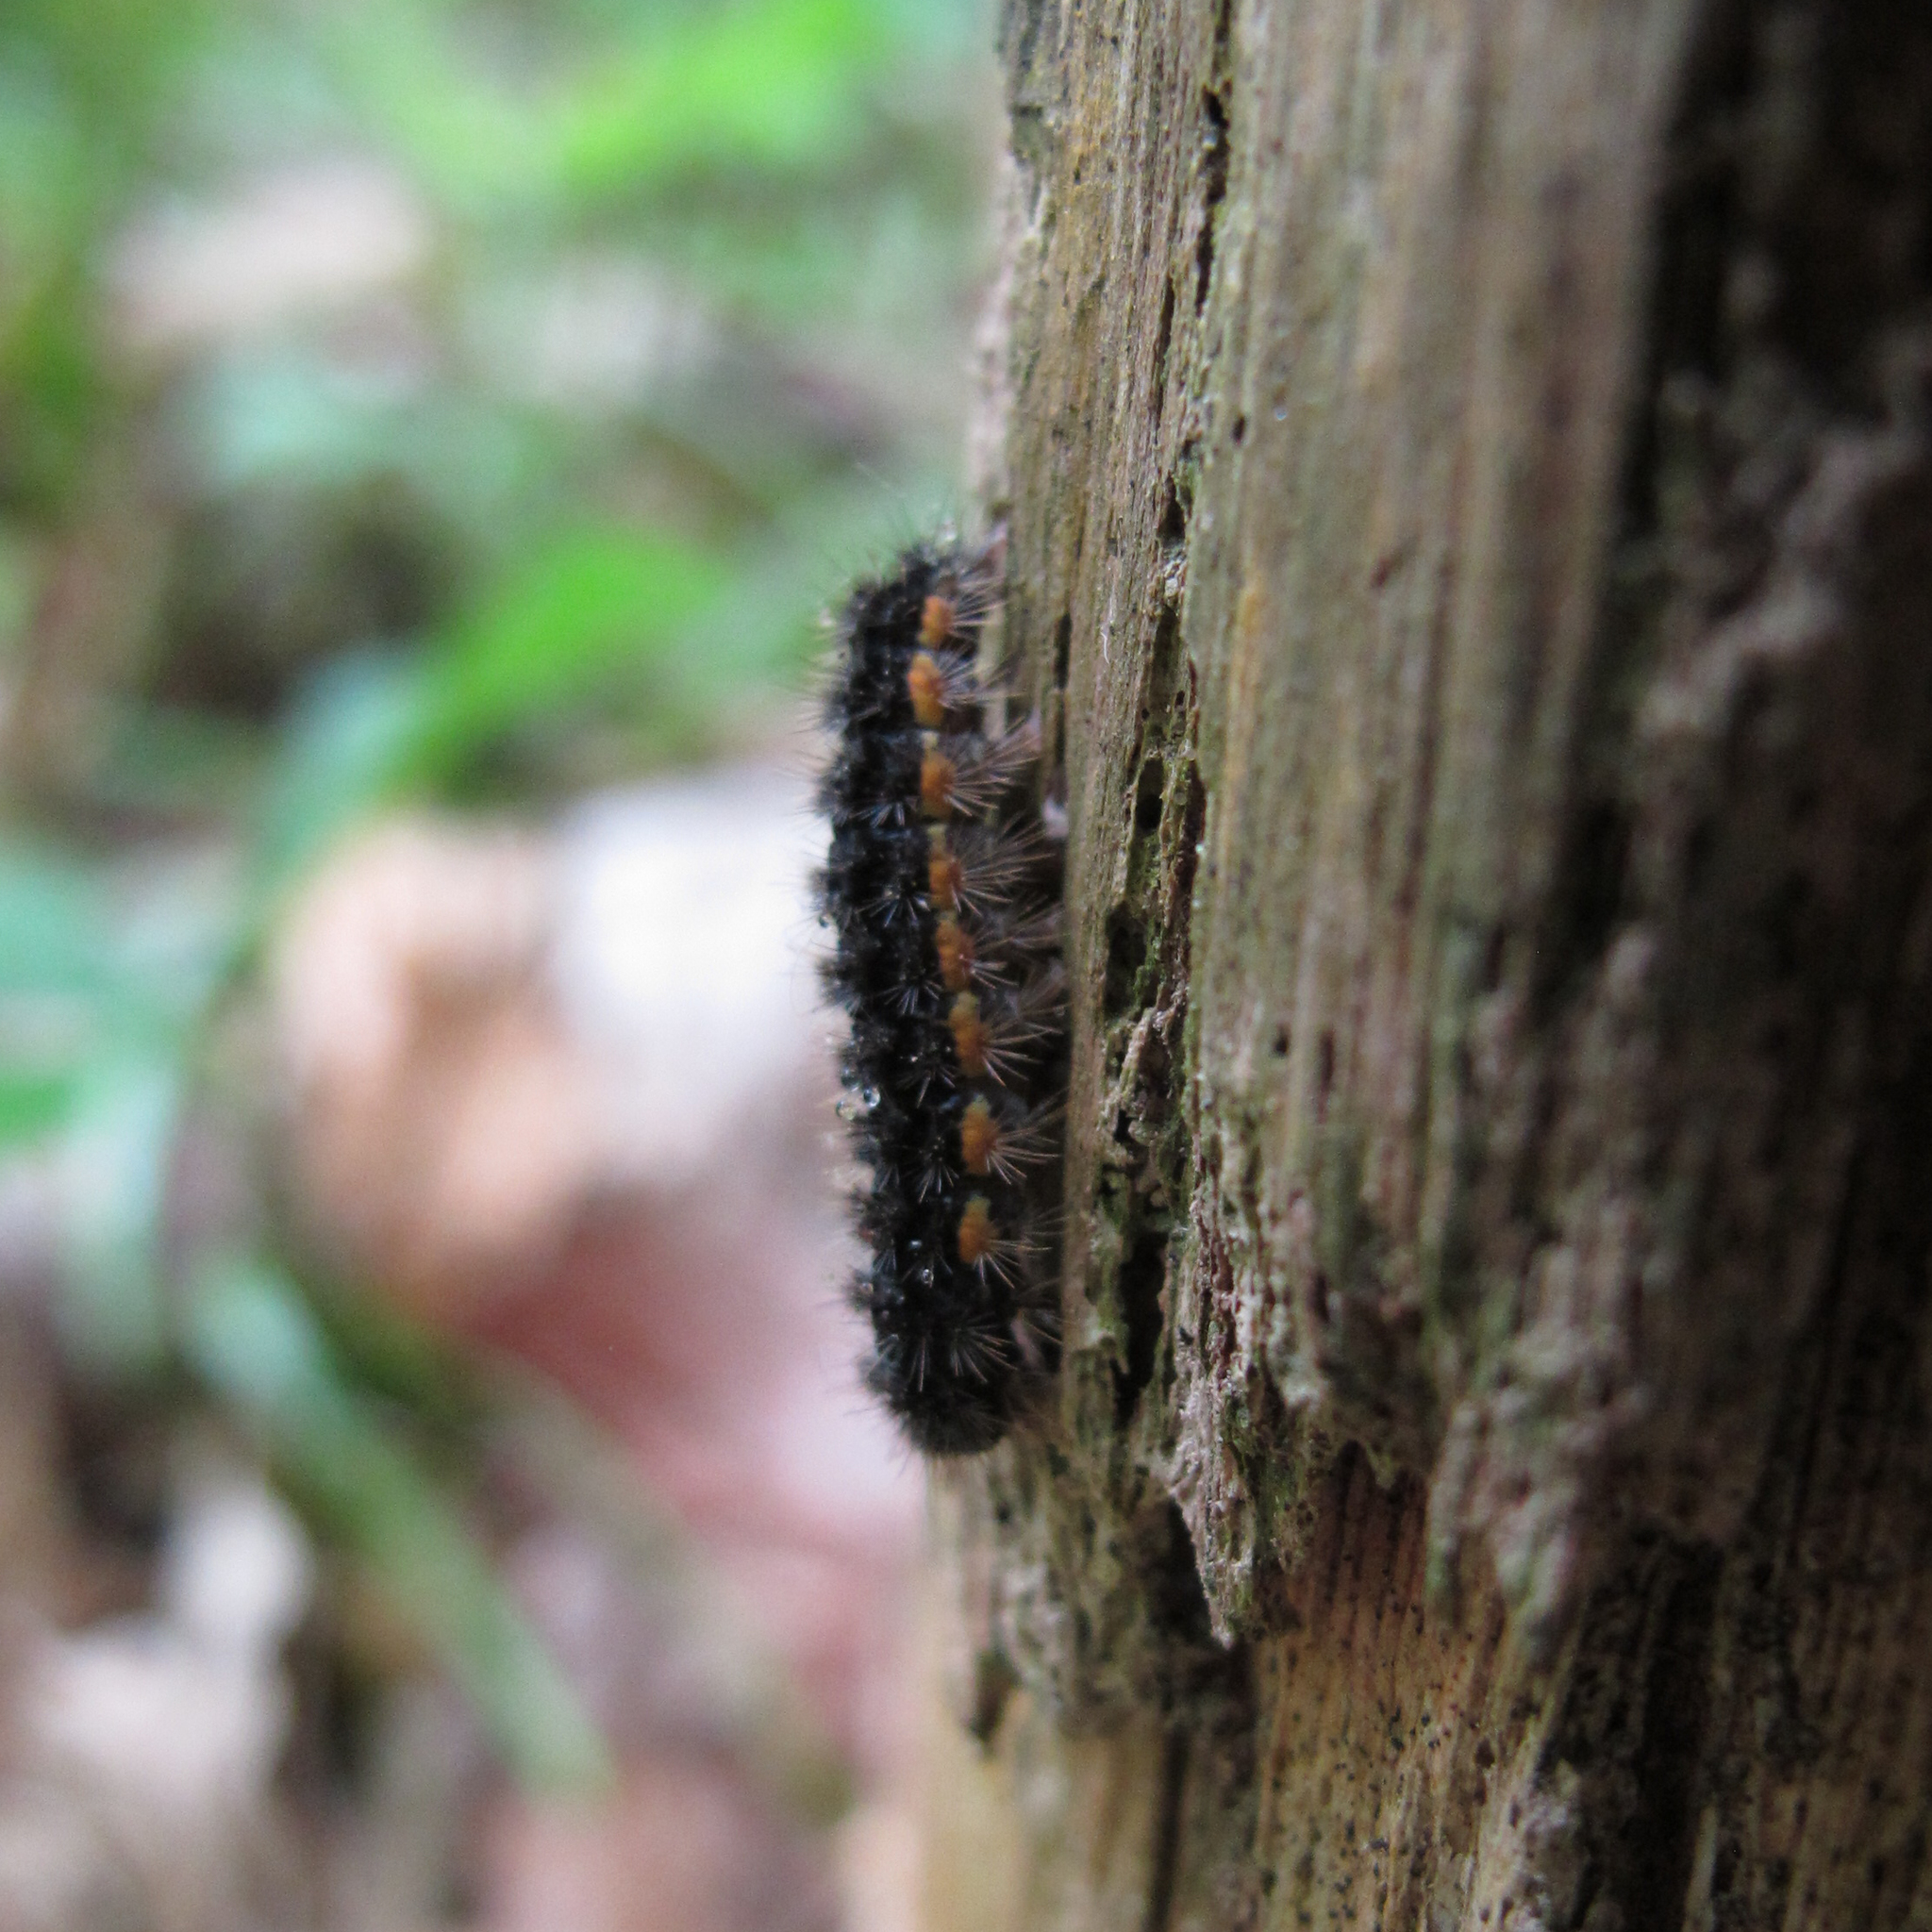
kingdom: Animalia
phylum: Arthropoda
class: Insecta
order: Lepidoptera
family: Erebidae
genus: Nyea
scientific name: Nyea lurideola
